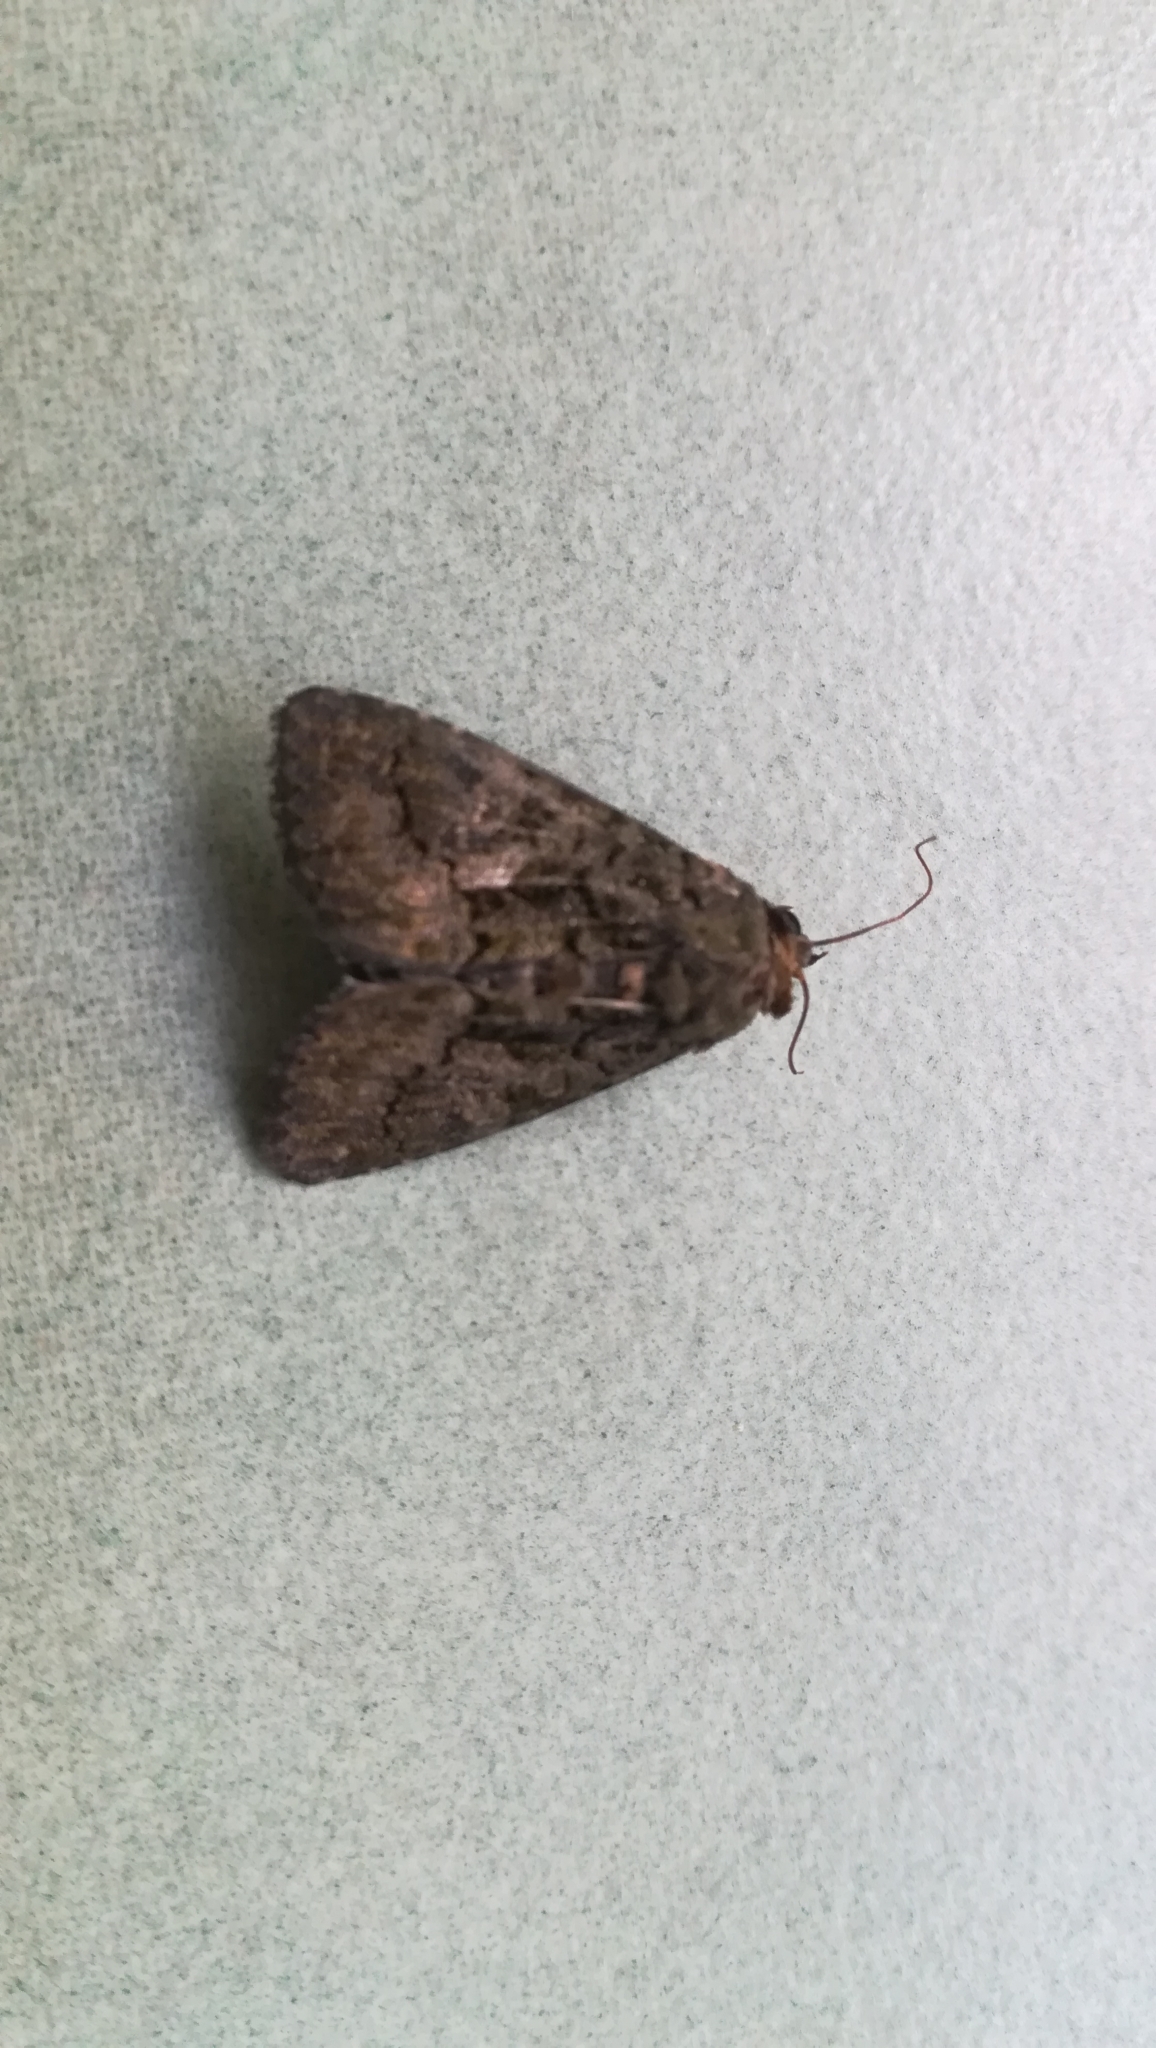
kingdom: Animalia
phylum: Arthropoda
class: Insecta
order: Lepidoptera
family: Noctuidae
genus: Aedia
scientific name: Aedia leucomelas
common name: Sorcerer
